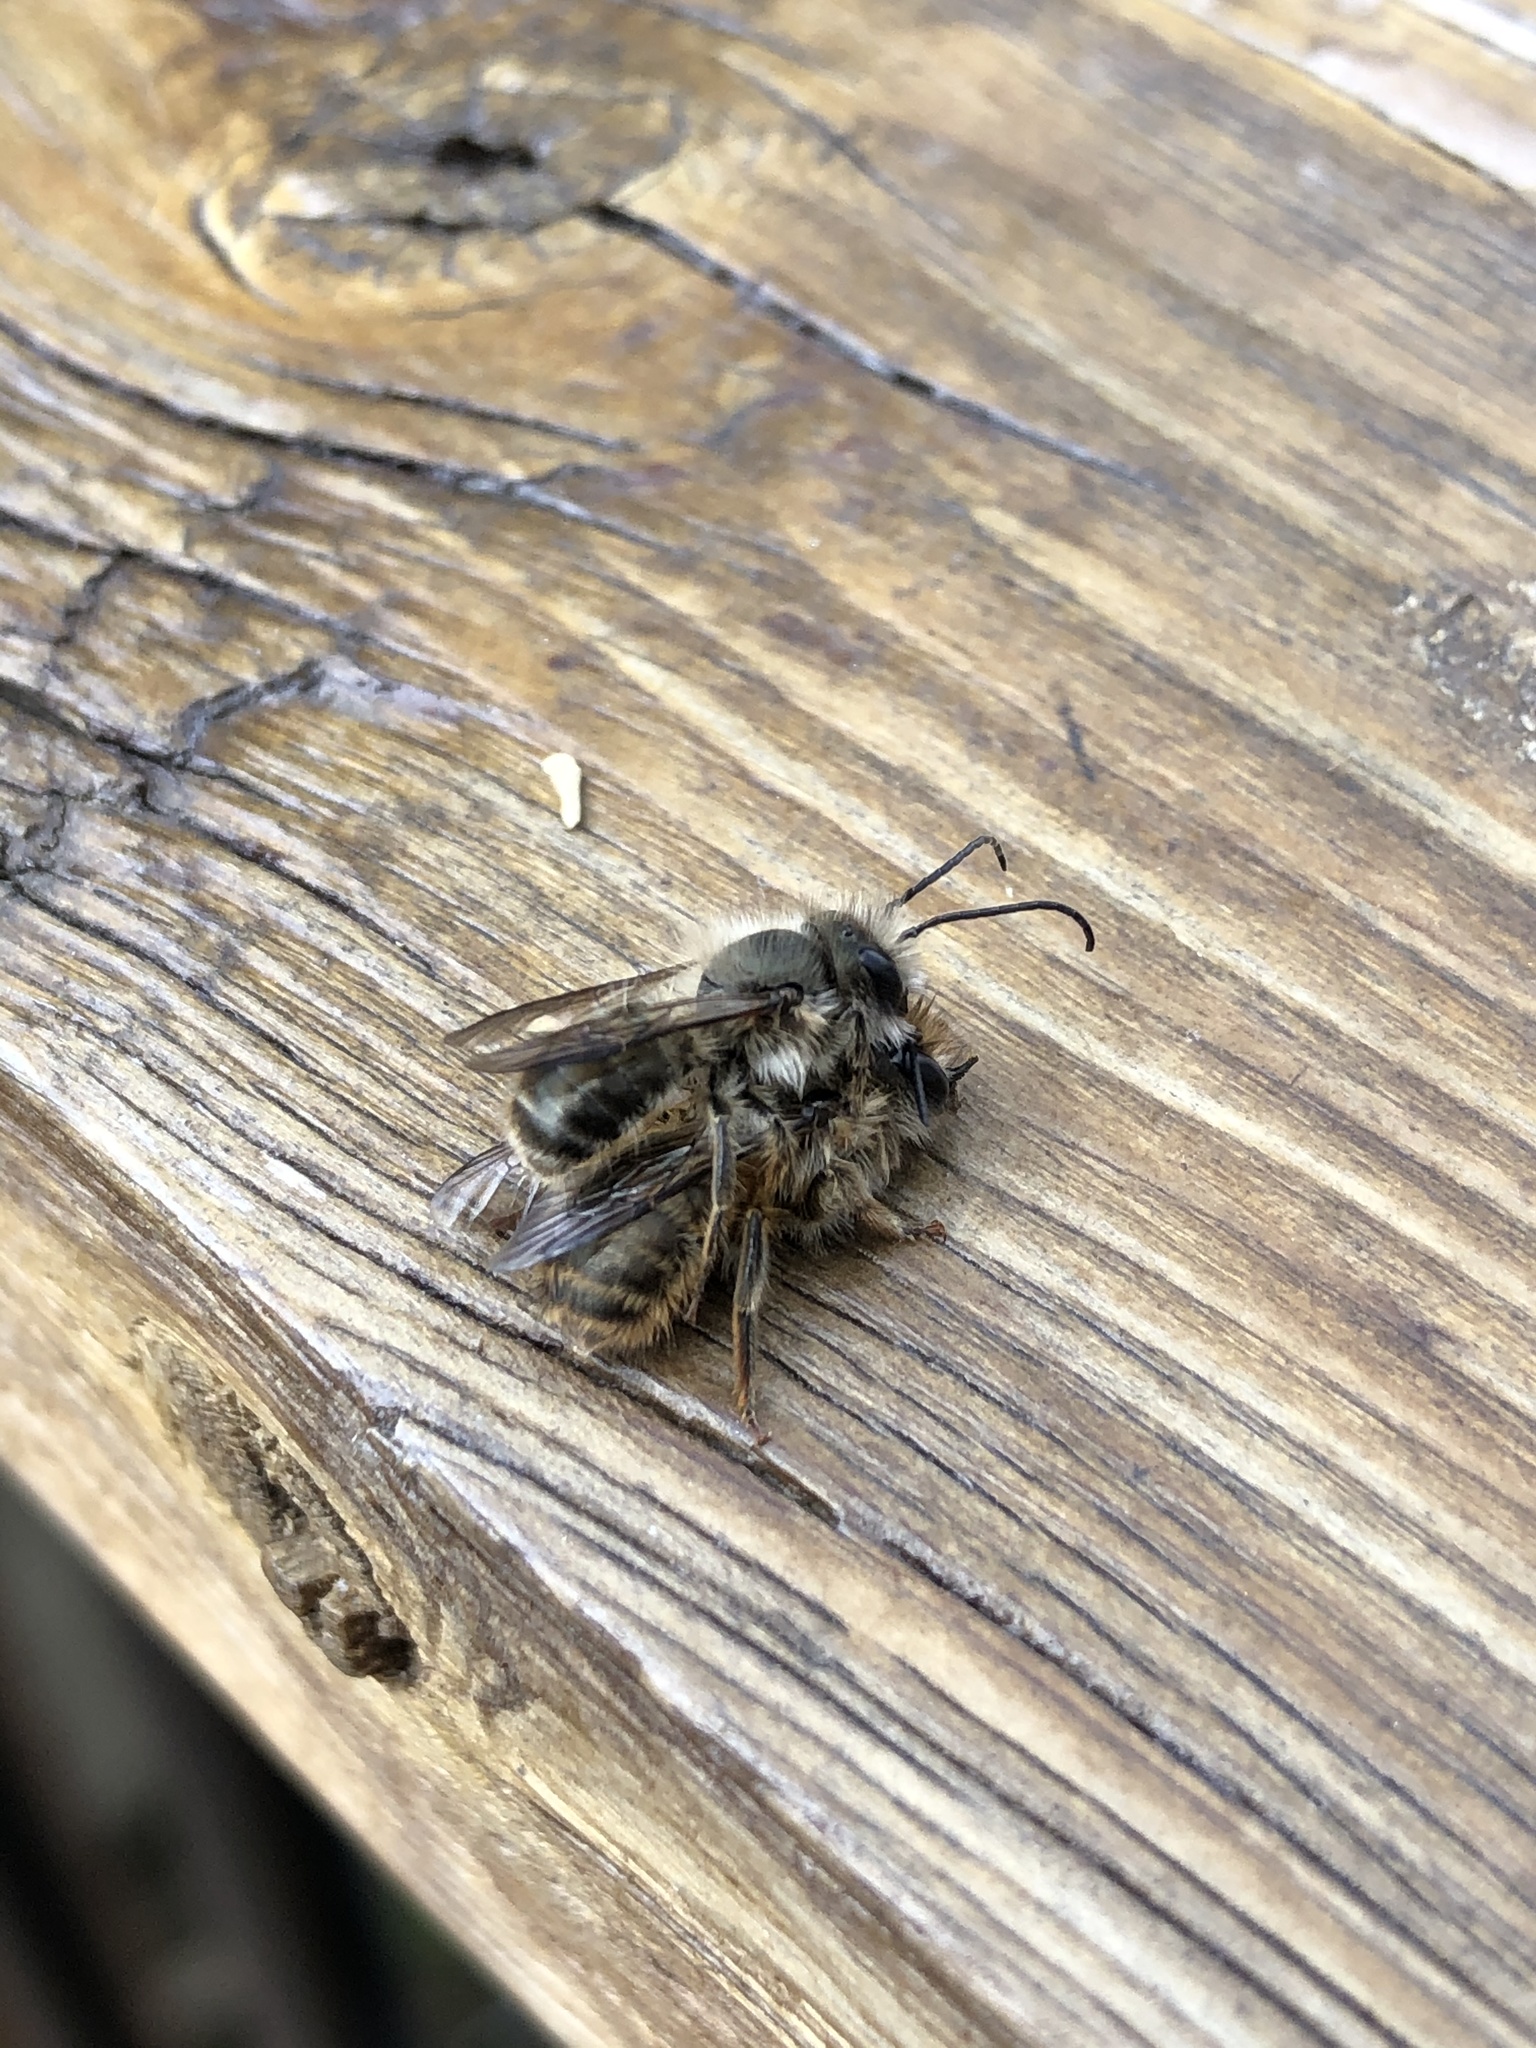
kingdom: Animalia
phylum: Arthropoda
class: Insecta
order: Hymenoptera
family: Megachilidae
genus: Osmia
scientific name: Osmia cornifrons
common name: Horn-faced bee
